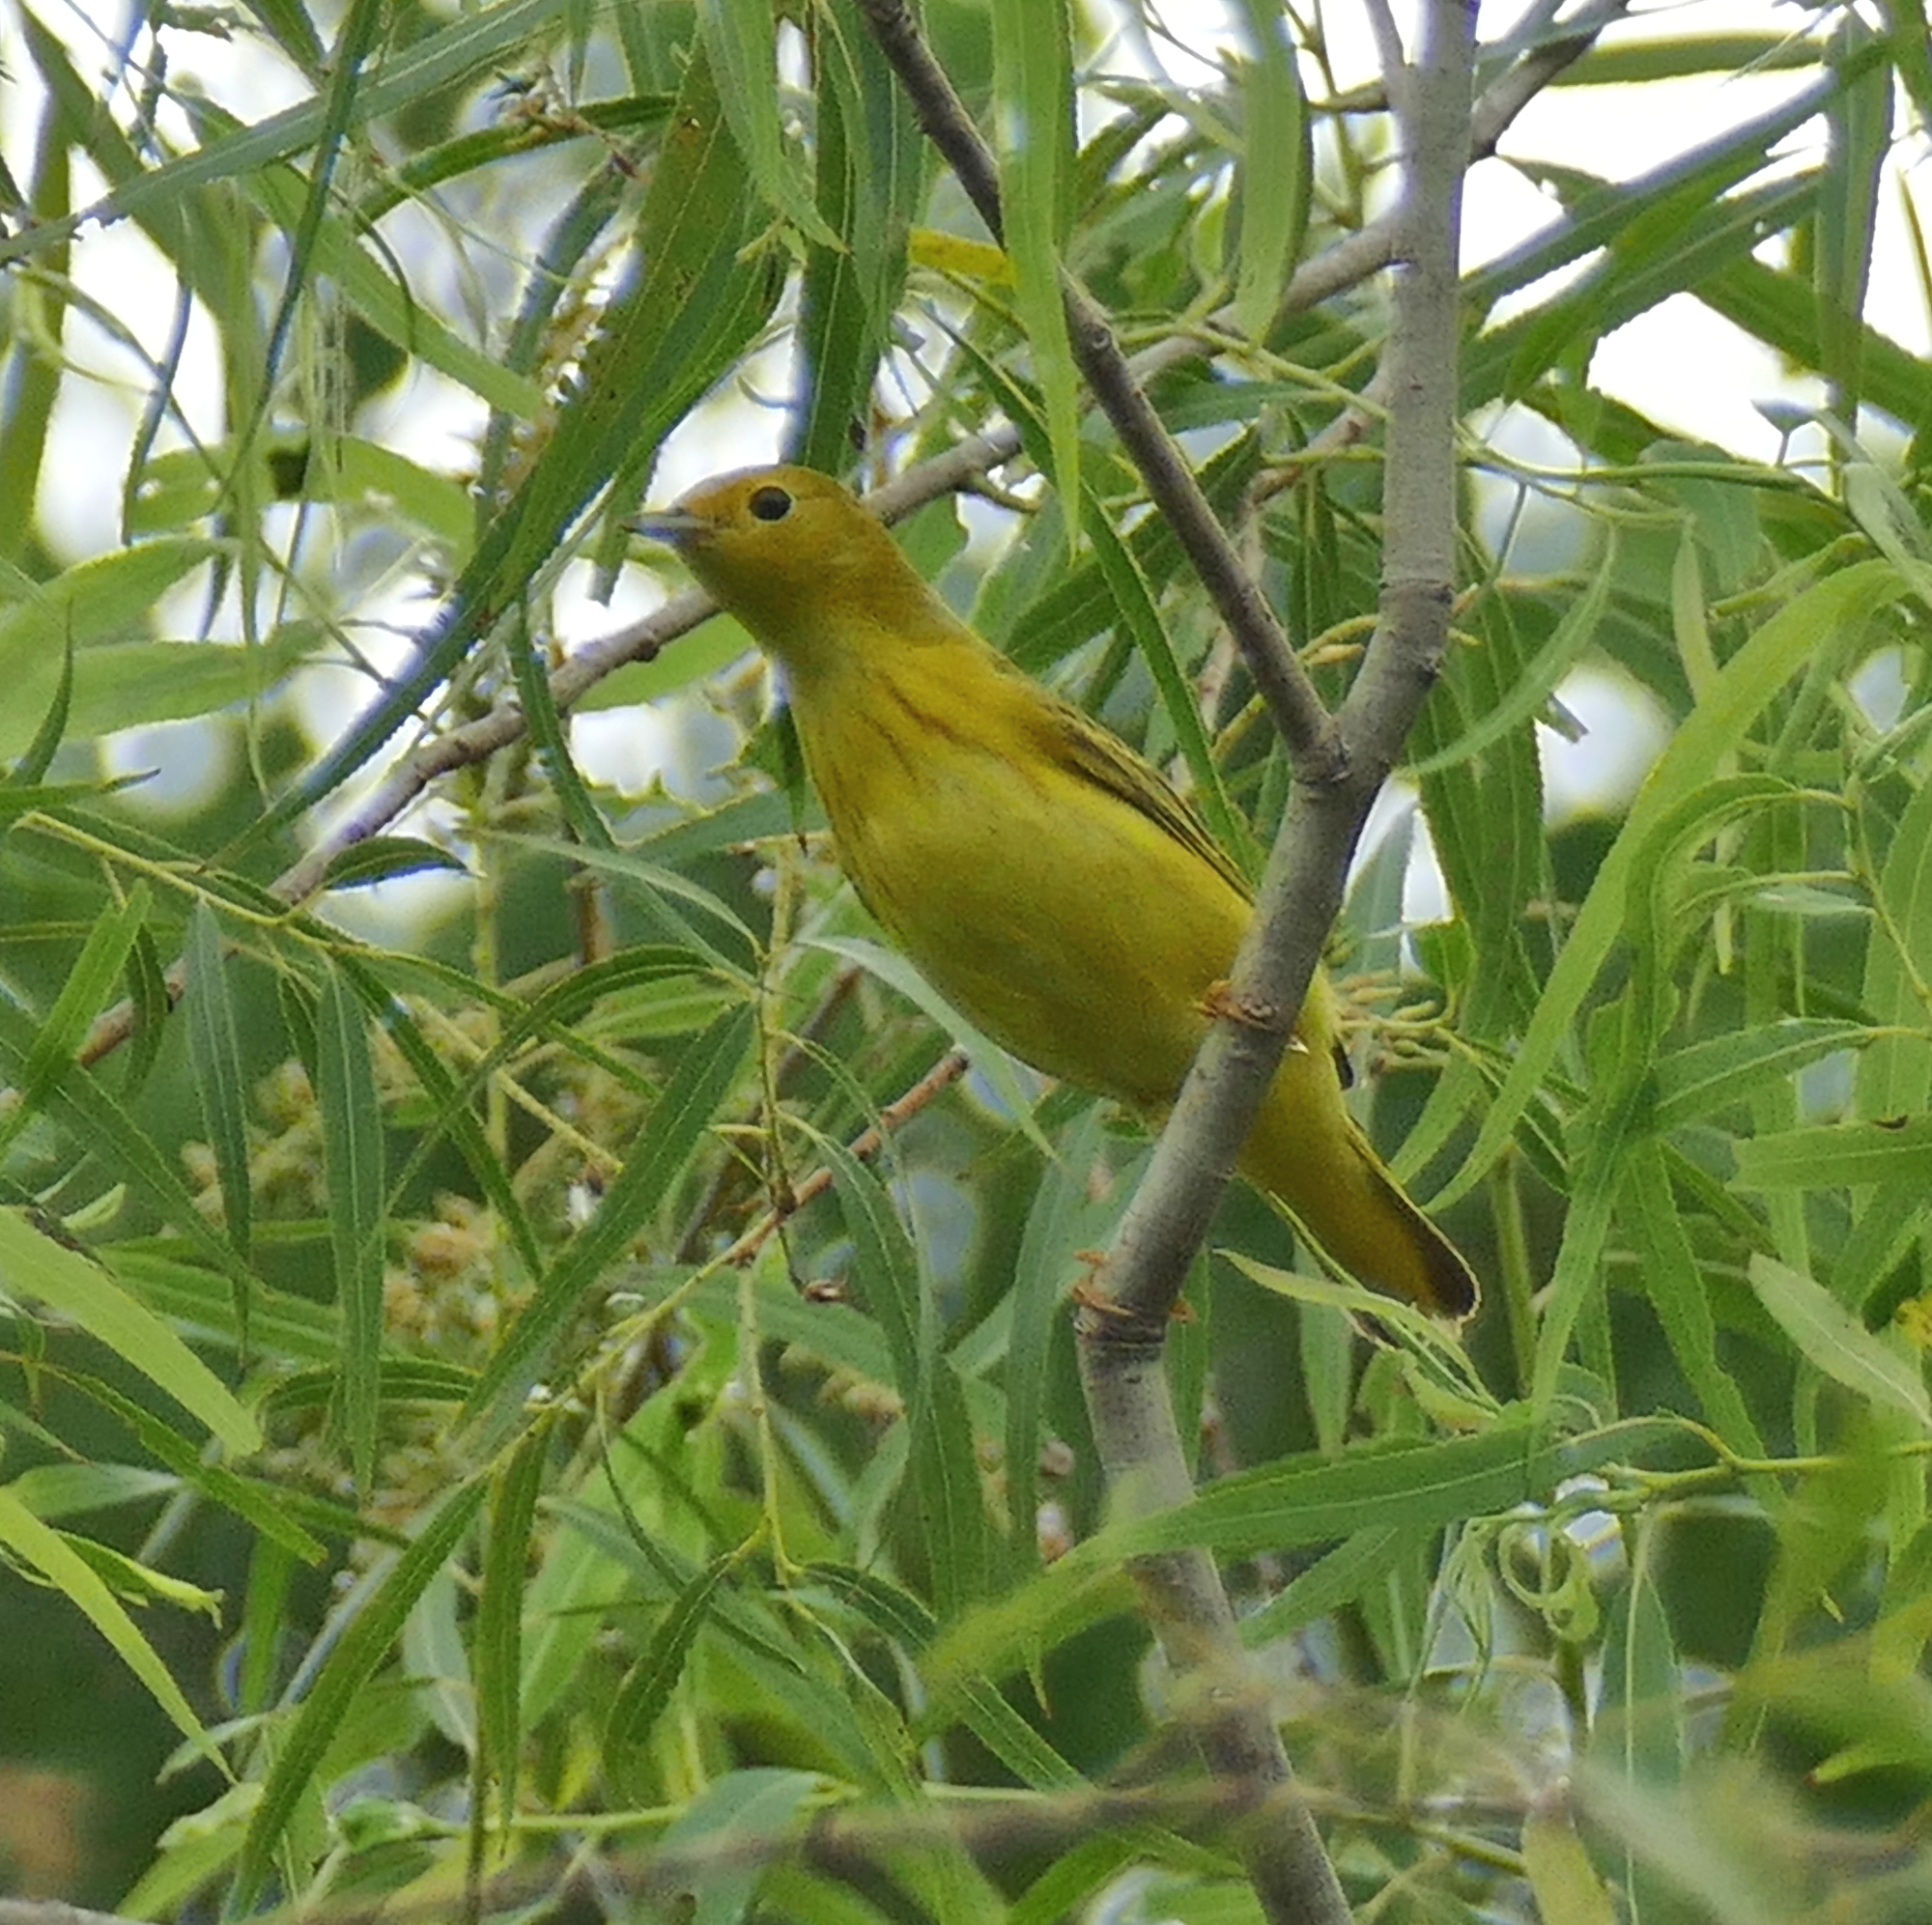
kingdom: Animalia
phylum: Chordata
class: Aves
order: Passeriformes
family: Parulidae
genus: Setophaga
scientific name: Setophaga petechia
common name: Yellow warbler
